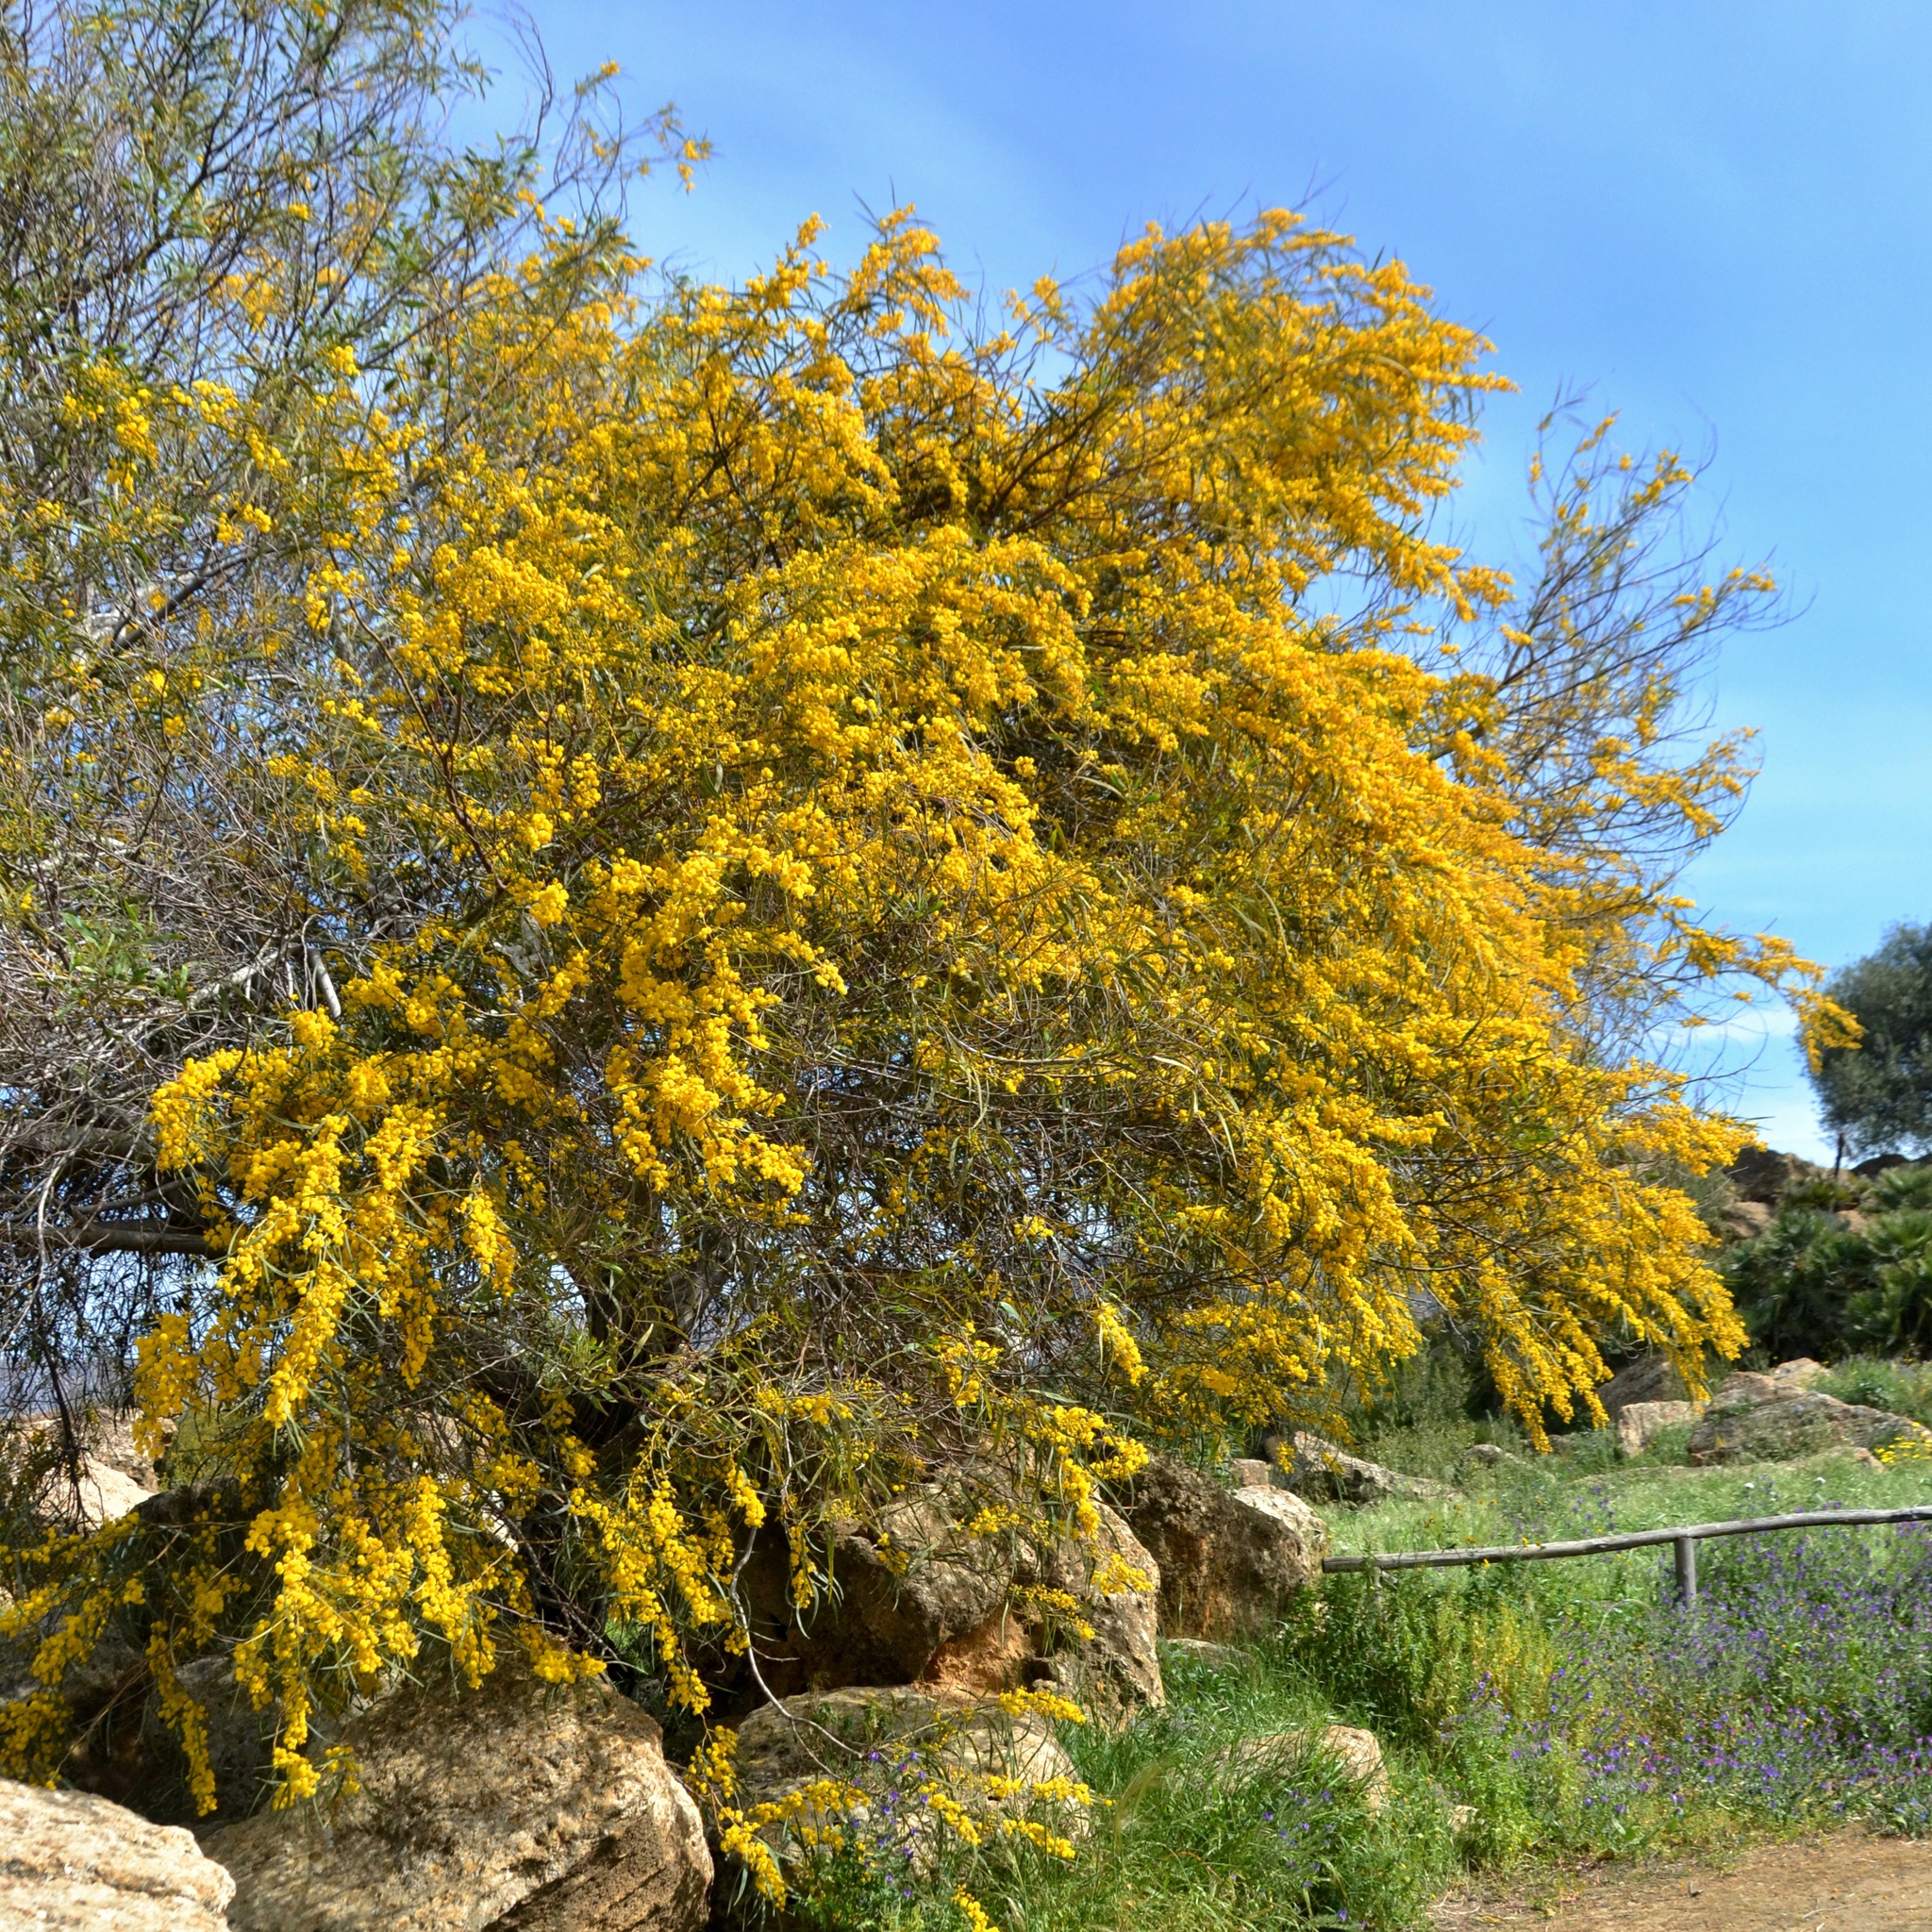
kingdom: Plantae
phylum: Tracheophyta
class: Magnoliopsida
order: Fabales
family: Fabaceae
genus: Acacia
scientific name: Acacia saligna
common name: Orange wattle
